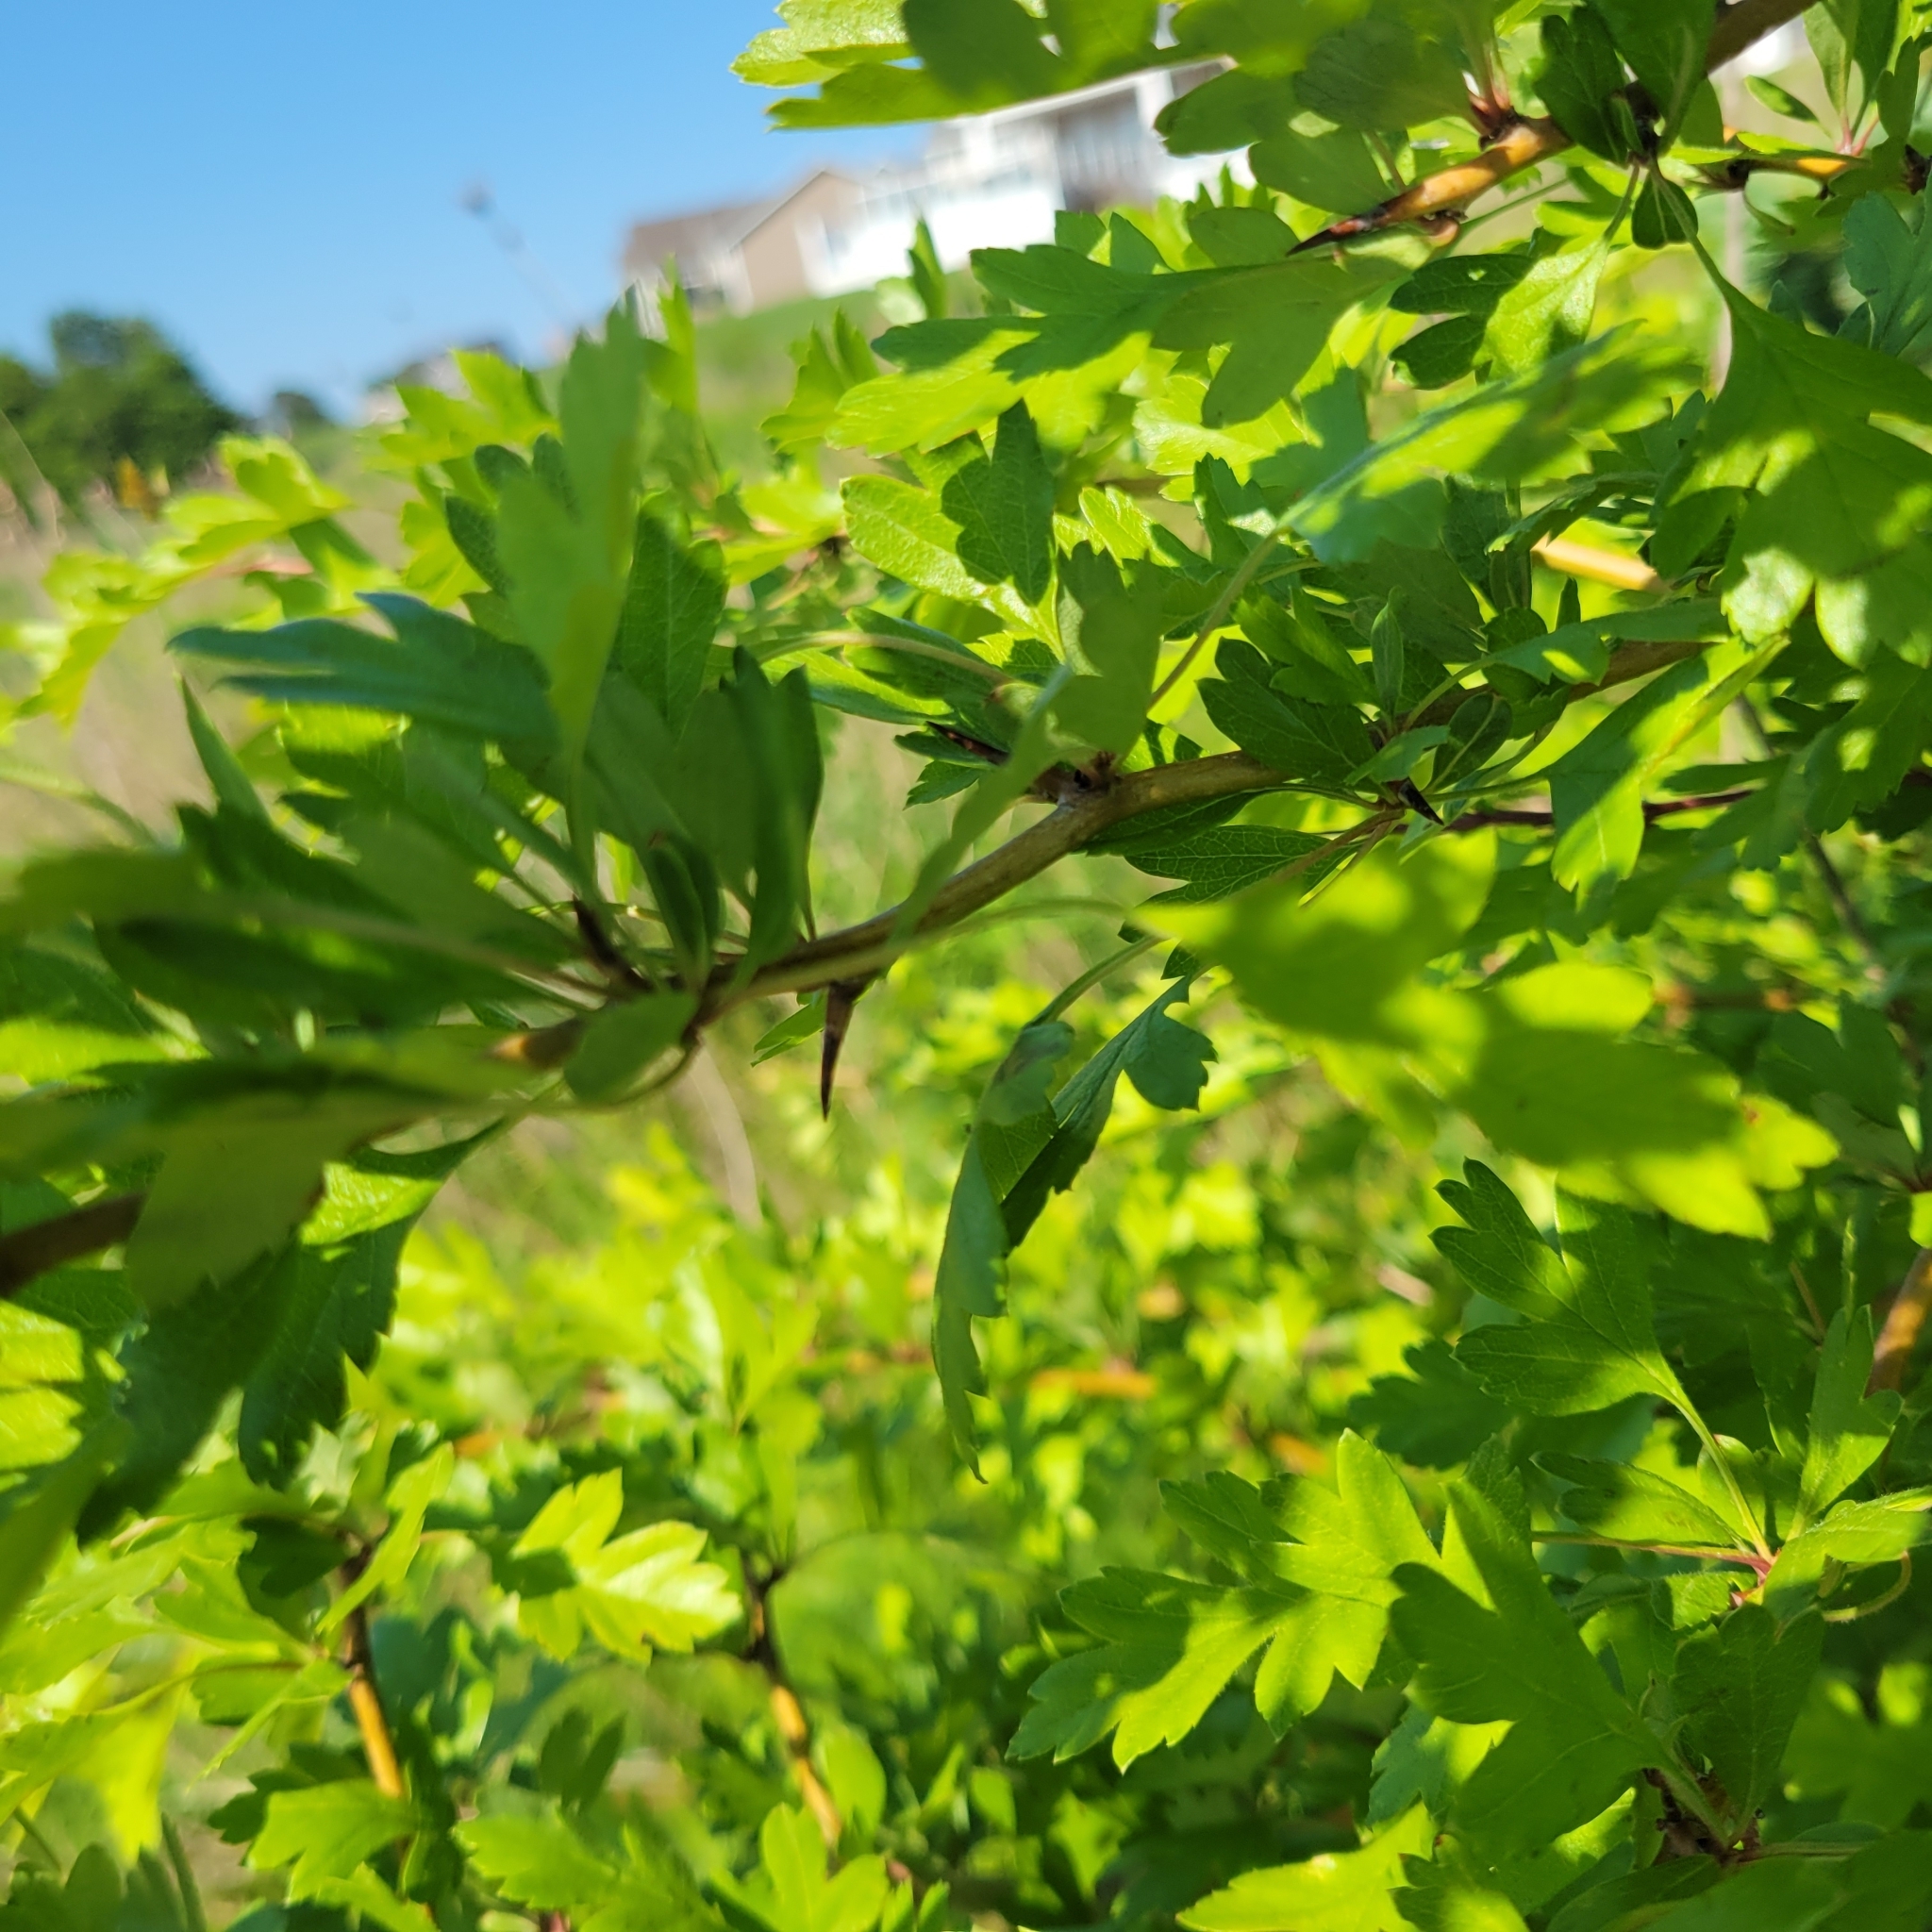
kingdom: Plantae
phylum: Tracheophyta
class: Magnoliopsida
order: Rosales
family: Rosaceae
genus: Crataegus
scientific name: Crataegus monogyna
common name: Hawthorn
